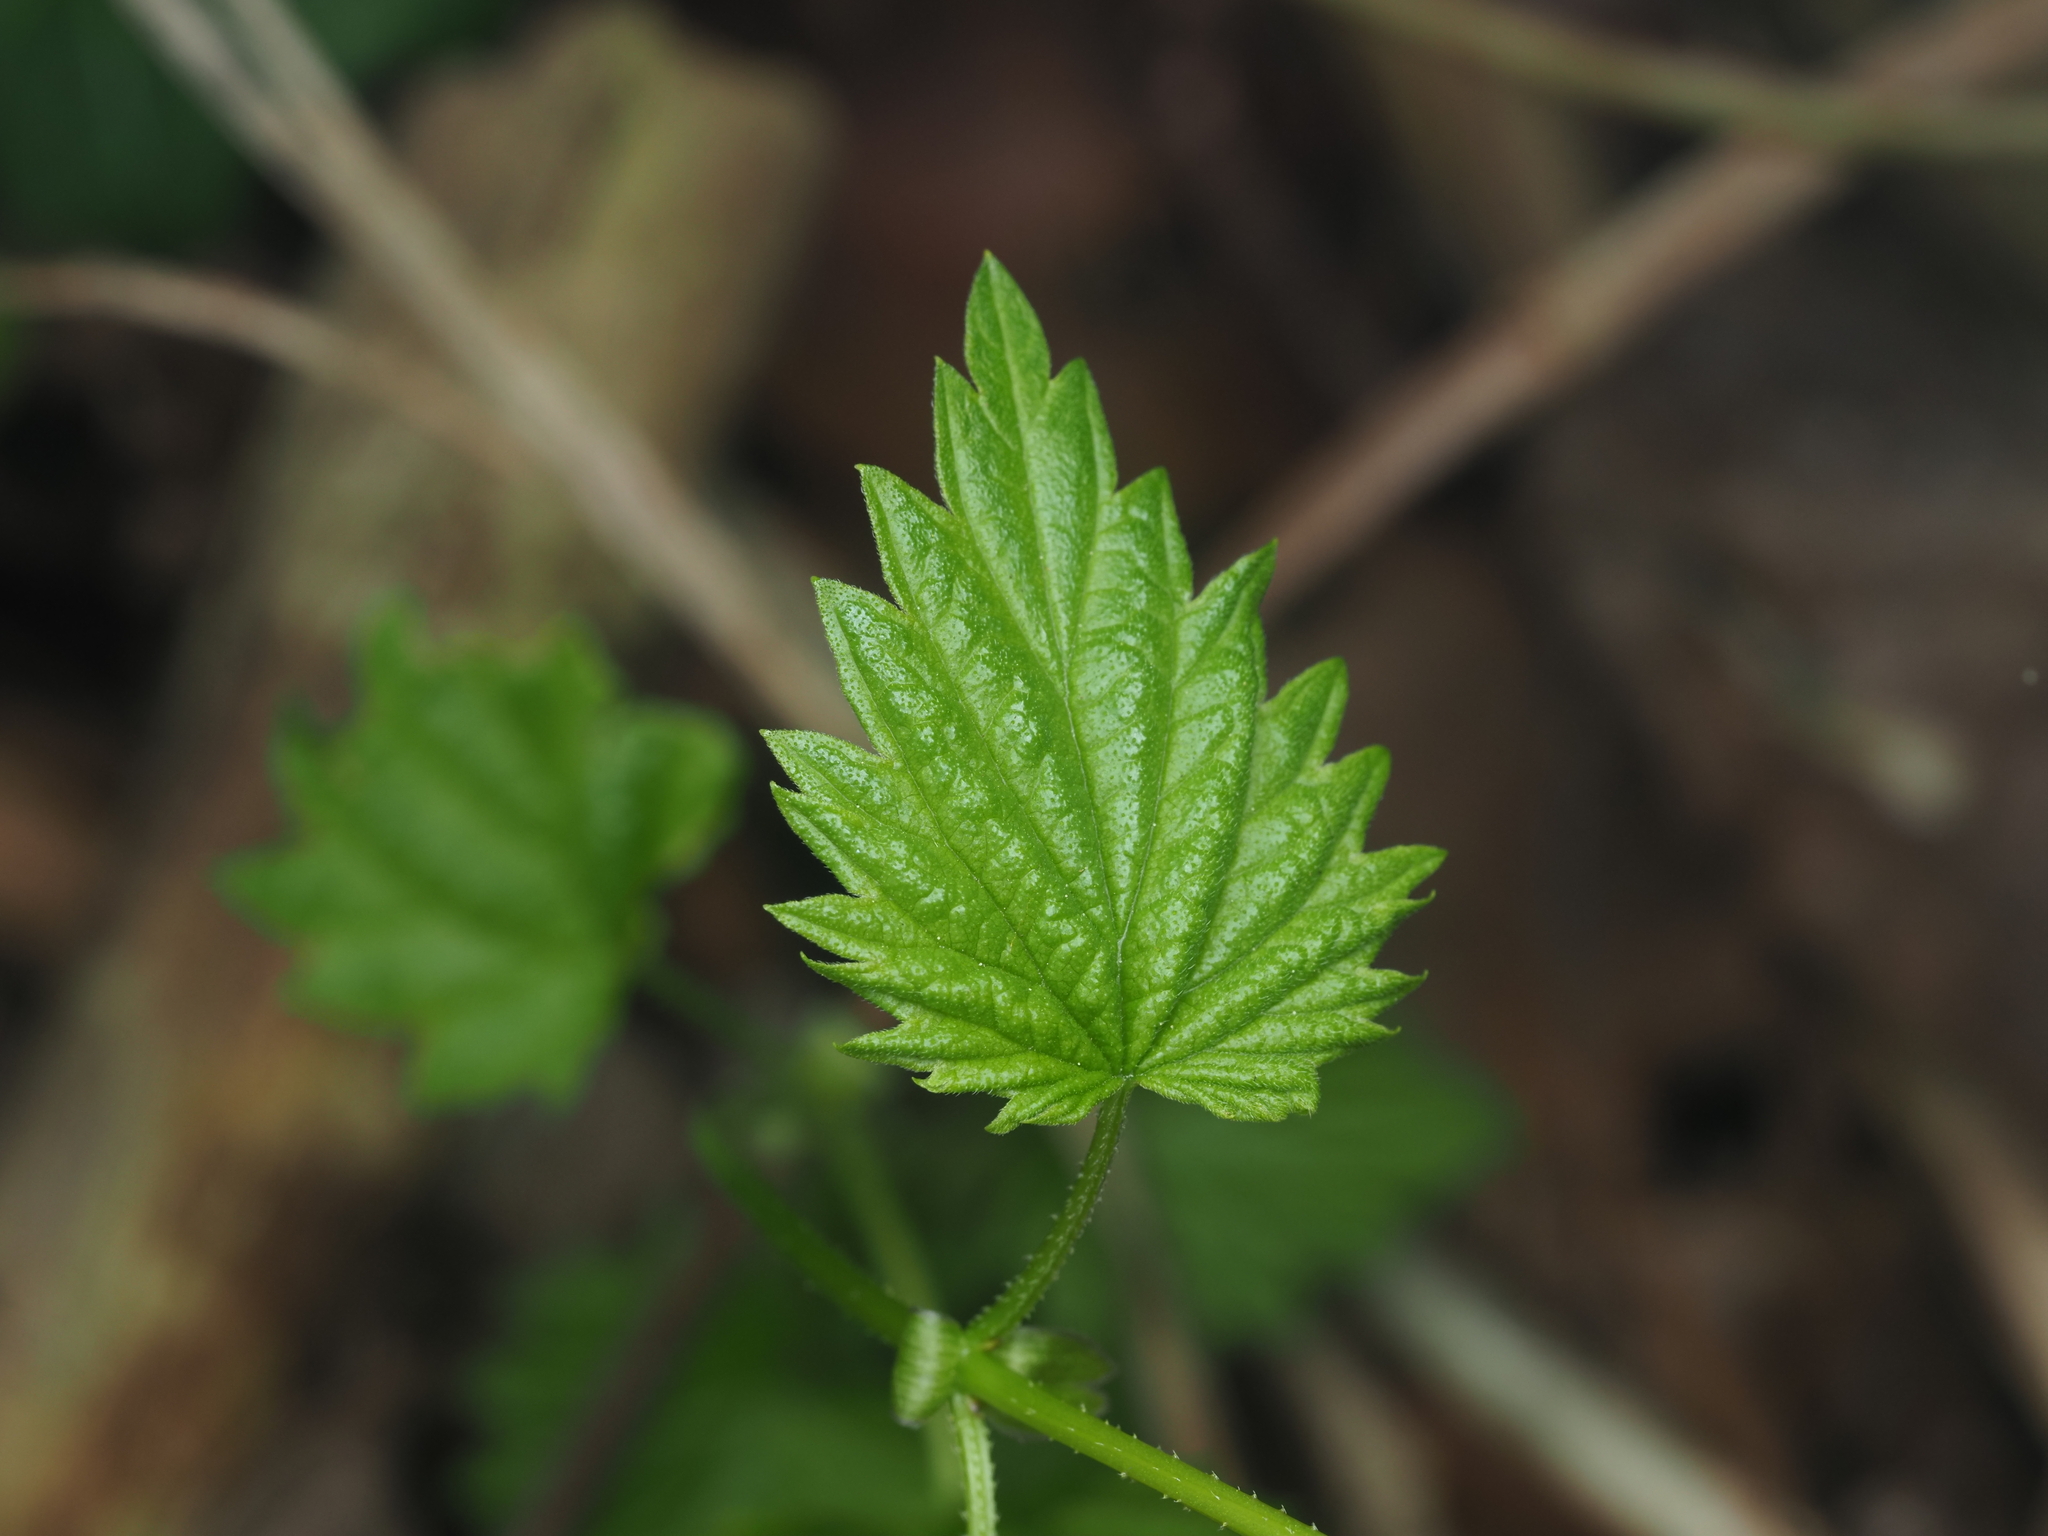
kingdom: Plantae
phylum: Tracheophyta
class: Magnoliopsida
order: Rosales
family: Cannabaceae
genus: Humulus
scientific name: Humulus lupulus
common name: Hop
